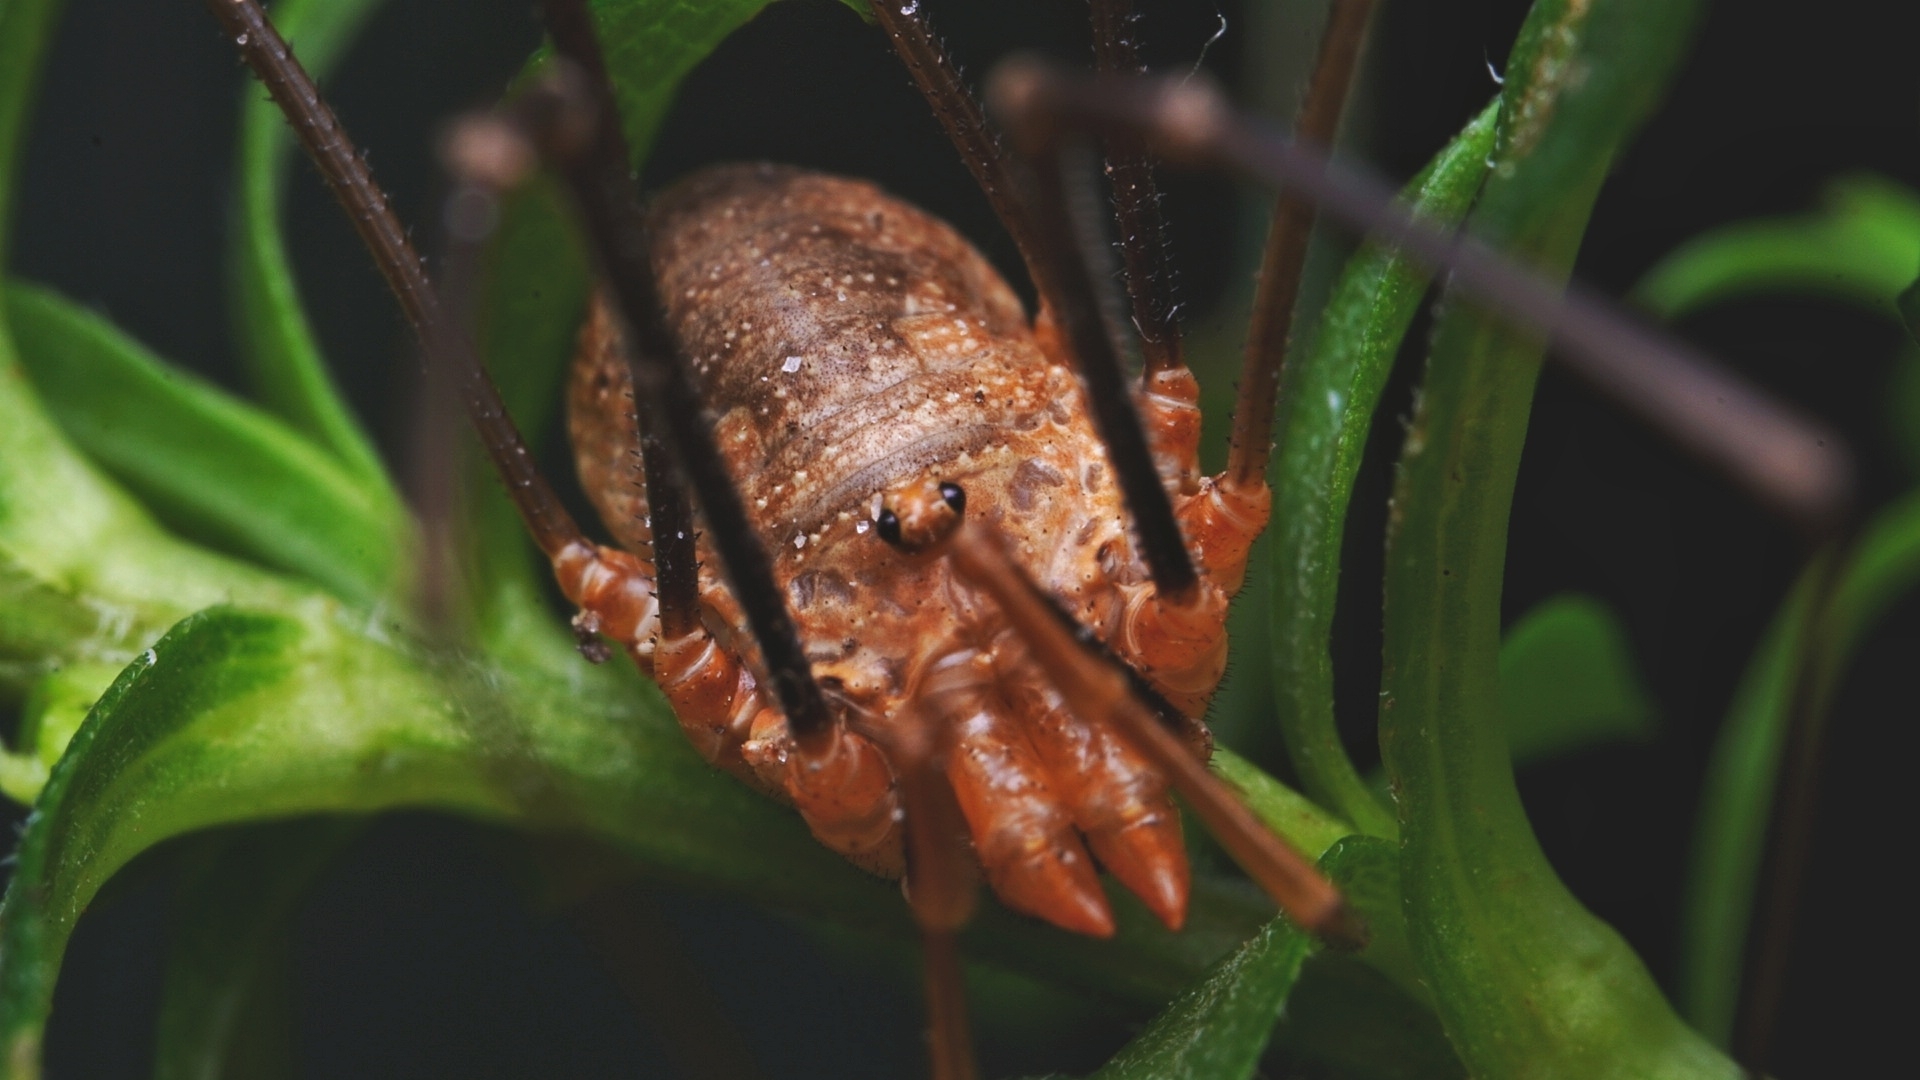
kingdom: Animalia
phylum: Arthropoda
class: Arachnida
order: Opiliones
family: Phalangiidae
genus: Phalangium
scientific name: Phalangium opilio
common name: Daddy longleg
